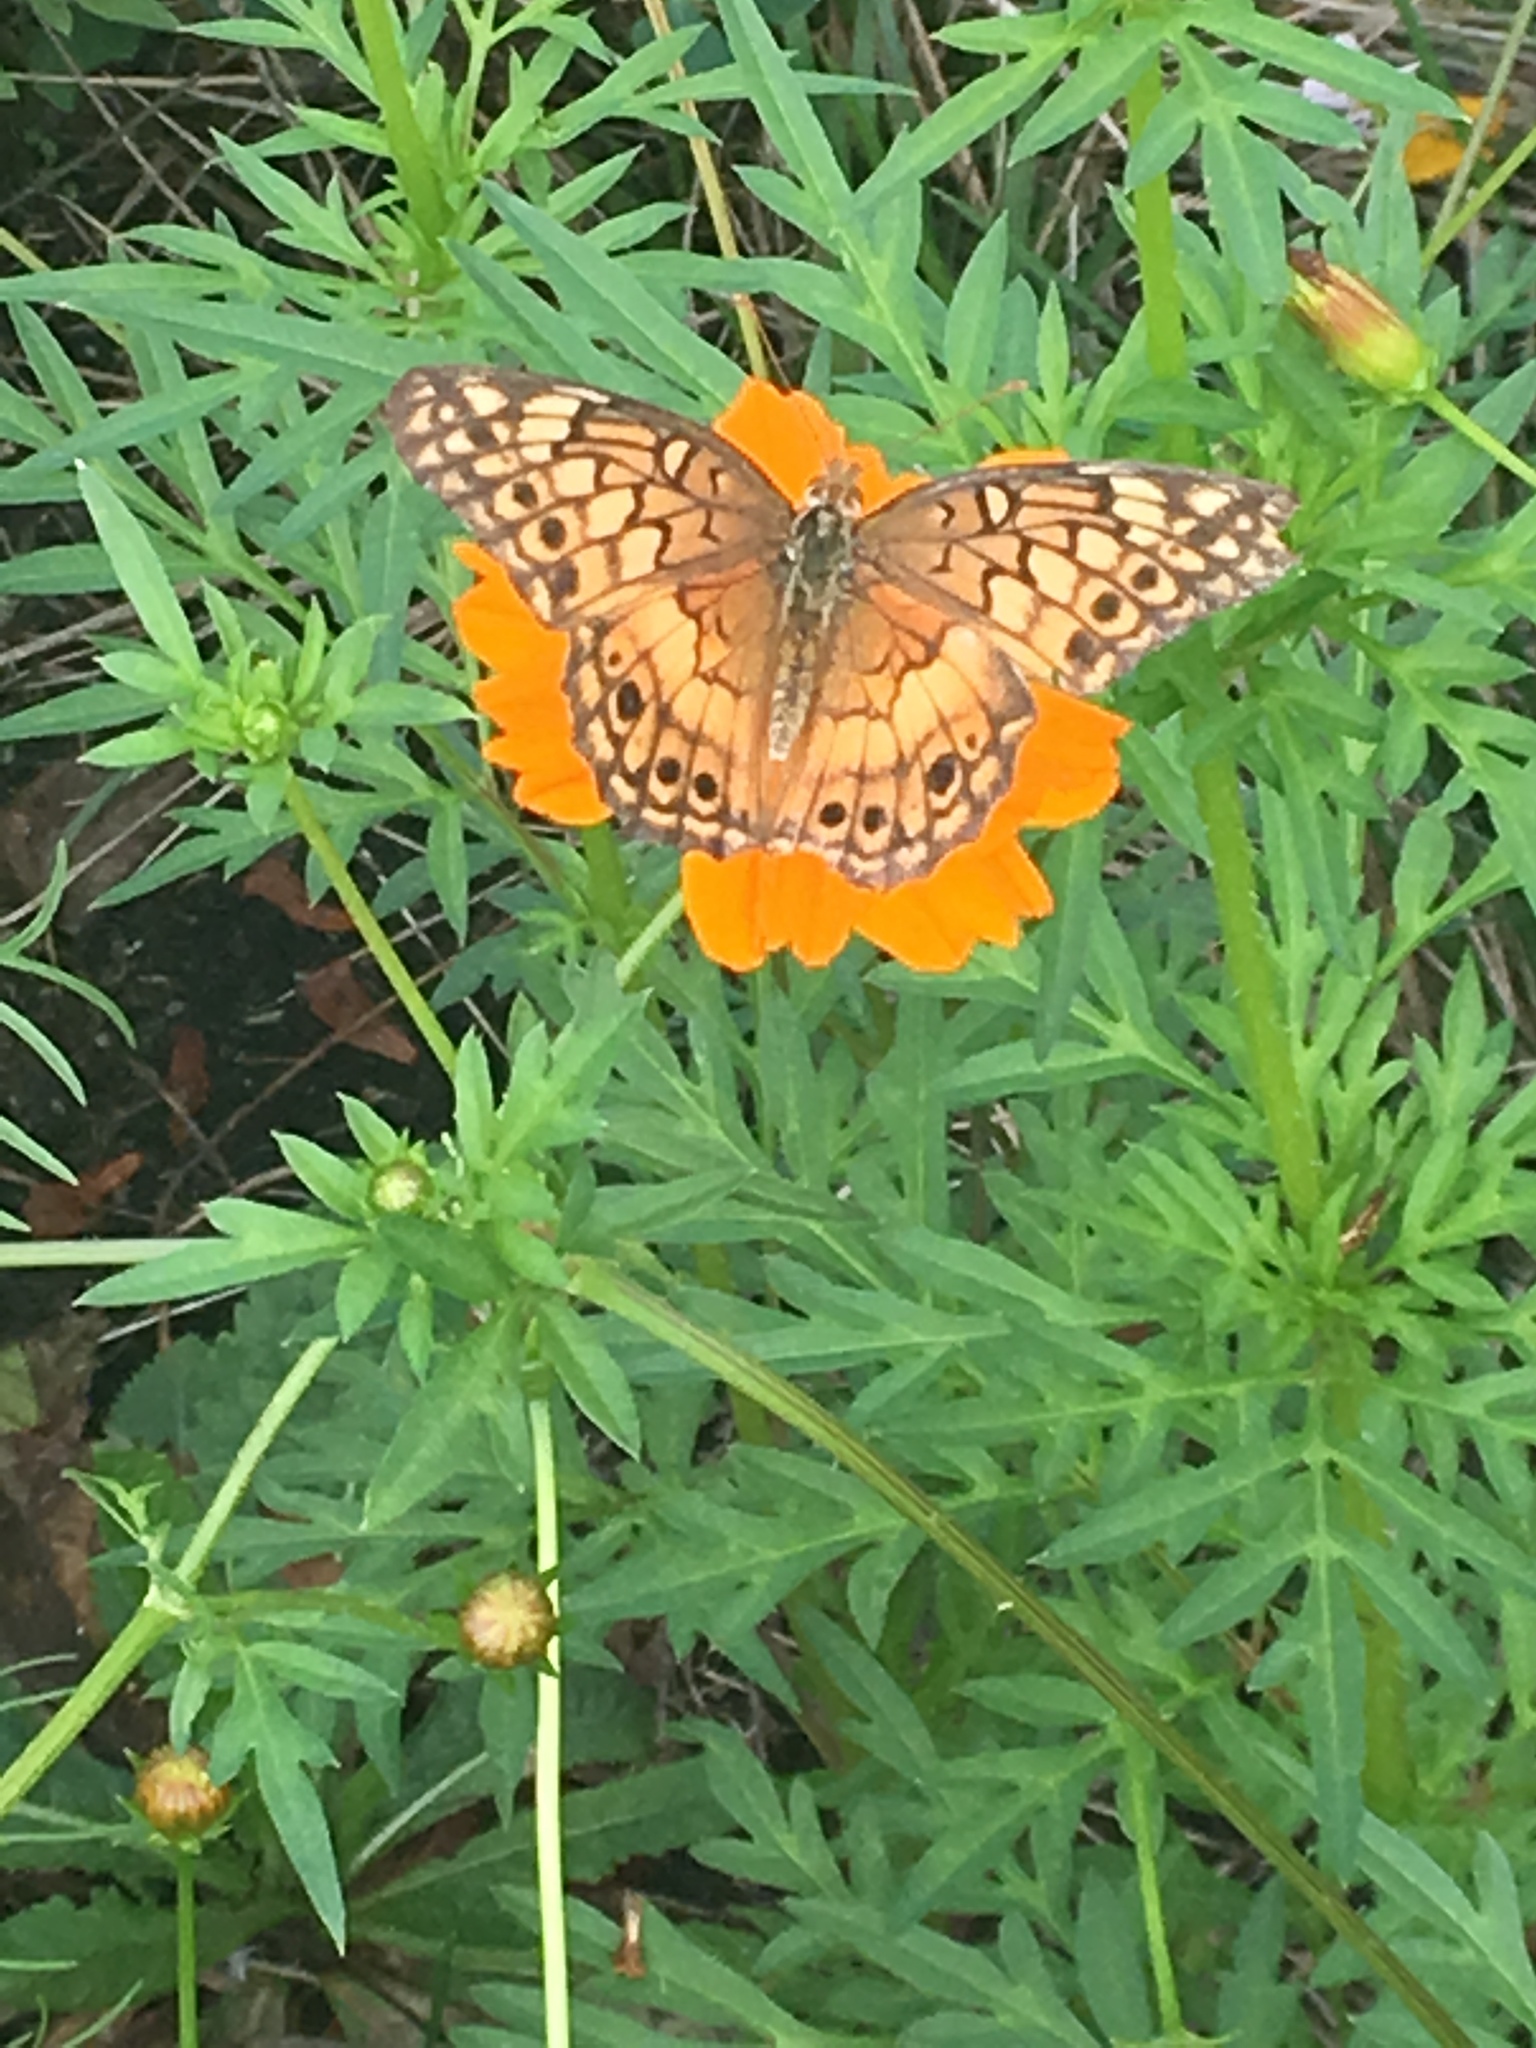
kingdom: Animalia
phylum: Arthropoda
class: Insecta
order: Lepidoptera
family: Nymphalidae
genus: Euptoieta
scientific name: Euptoieta claudia
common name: Variegated fritillary
